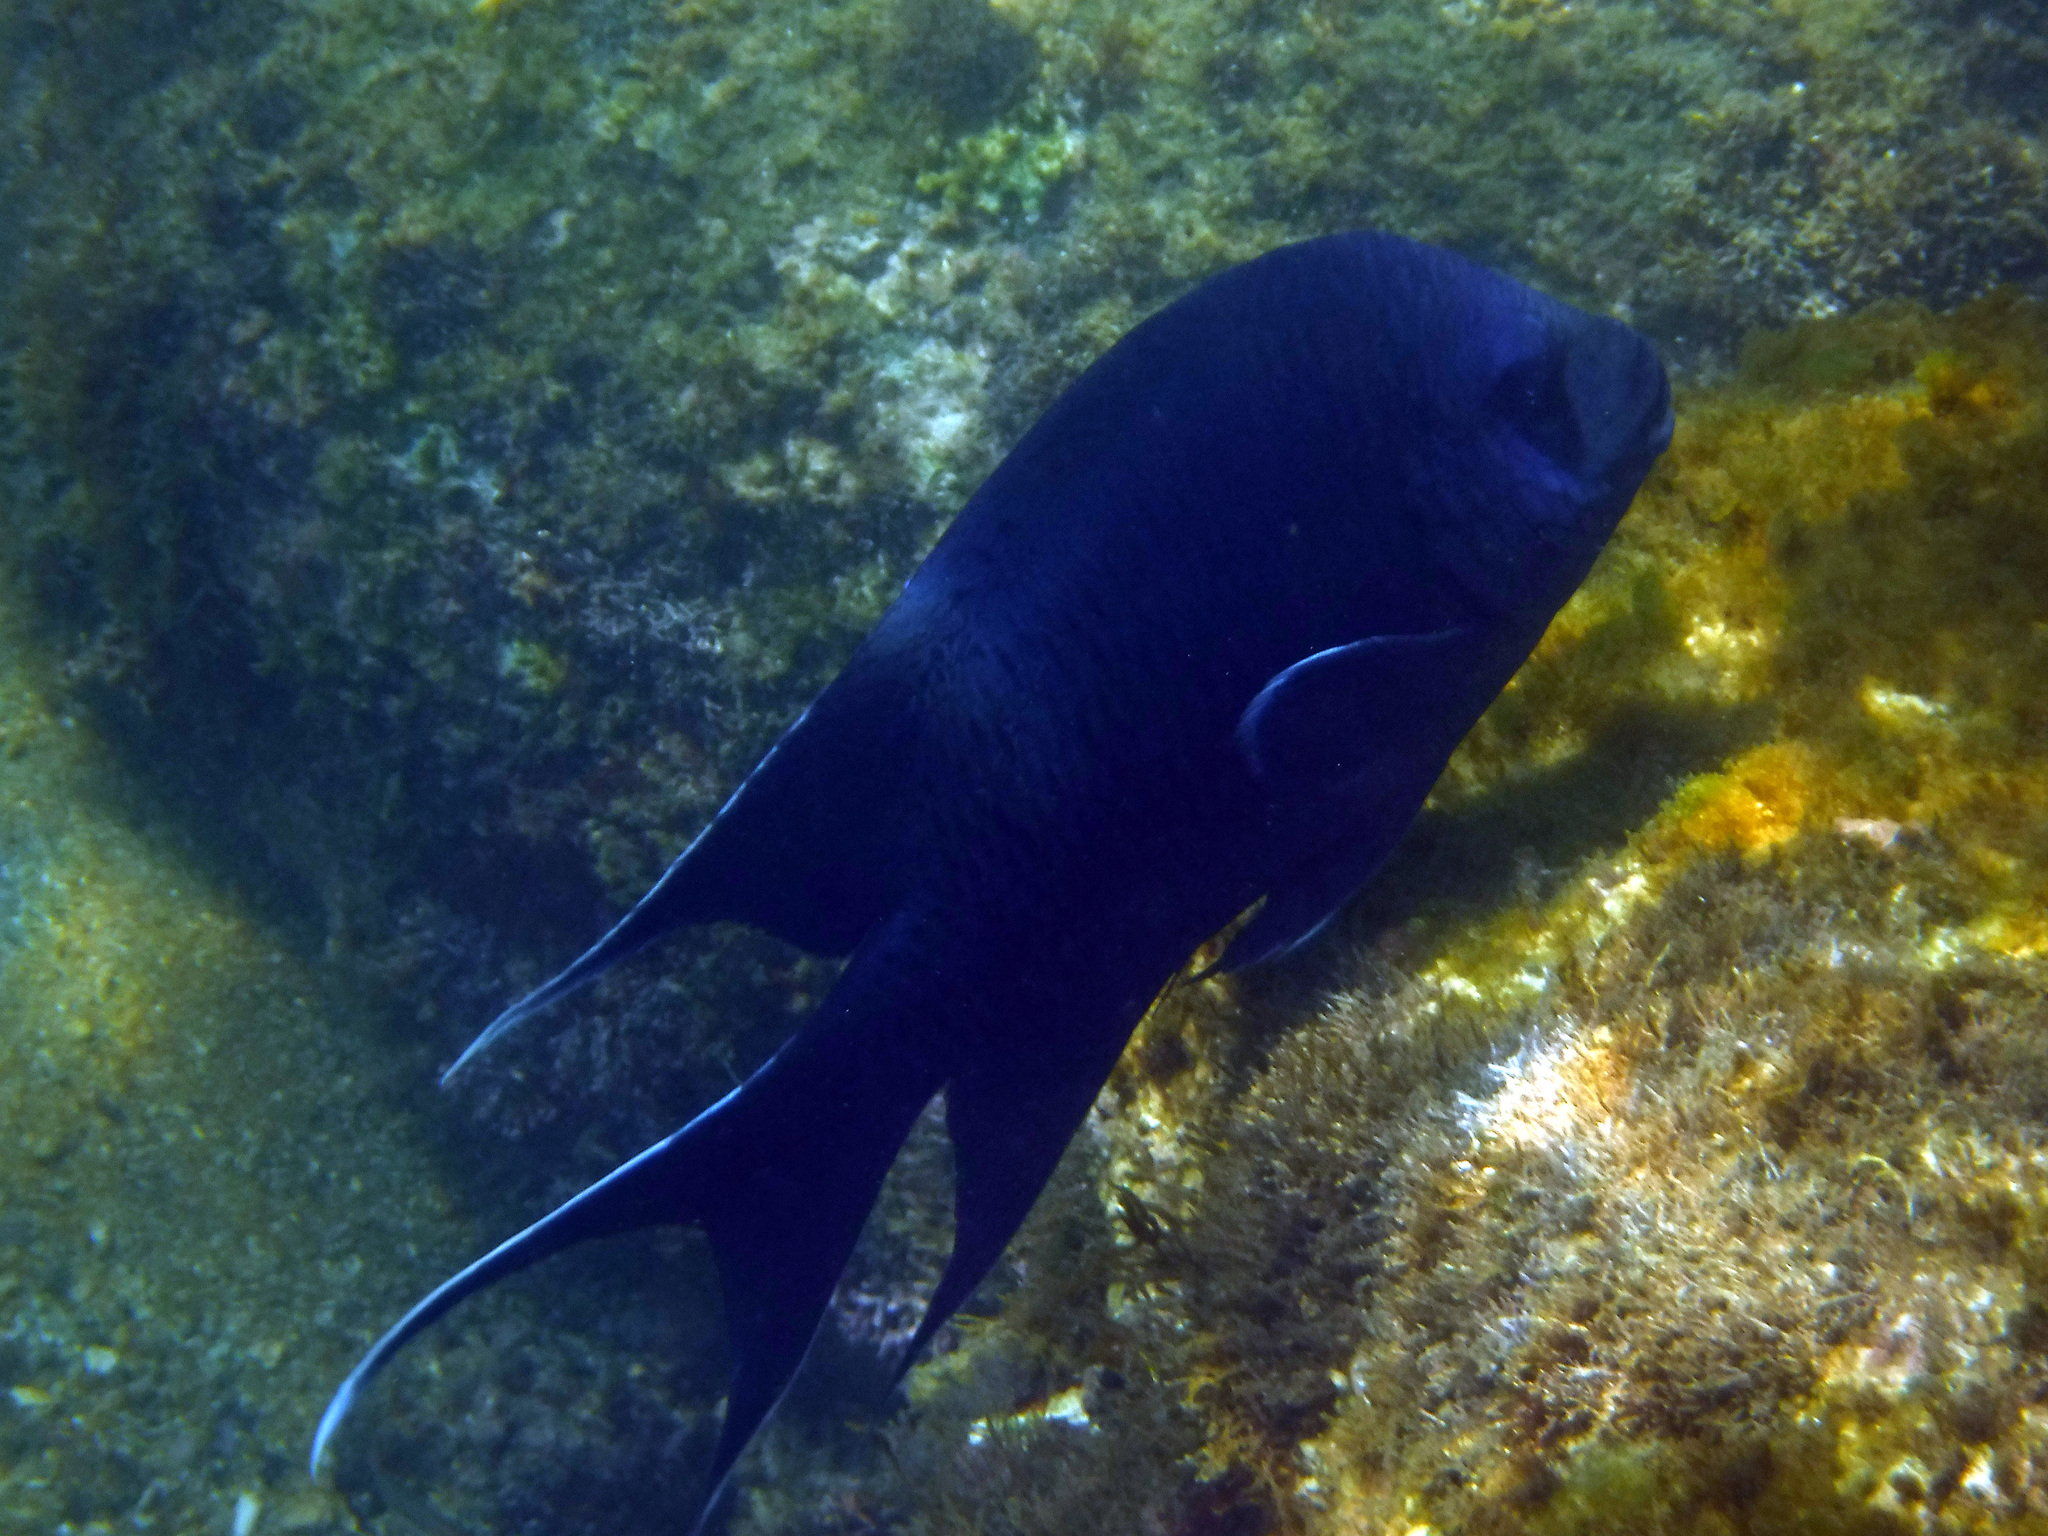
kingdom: Animalia
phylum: Chordata
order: Perciformes
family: Pomacentridae
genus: Microspathodon
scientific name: Microspathodon dorsalis
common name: Giant damselfish
